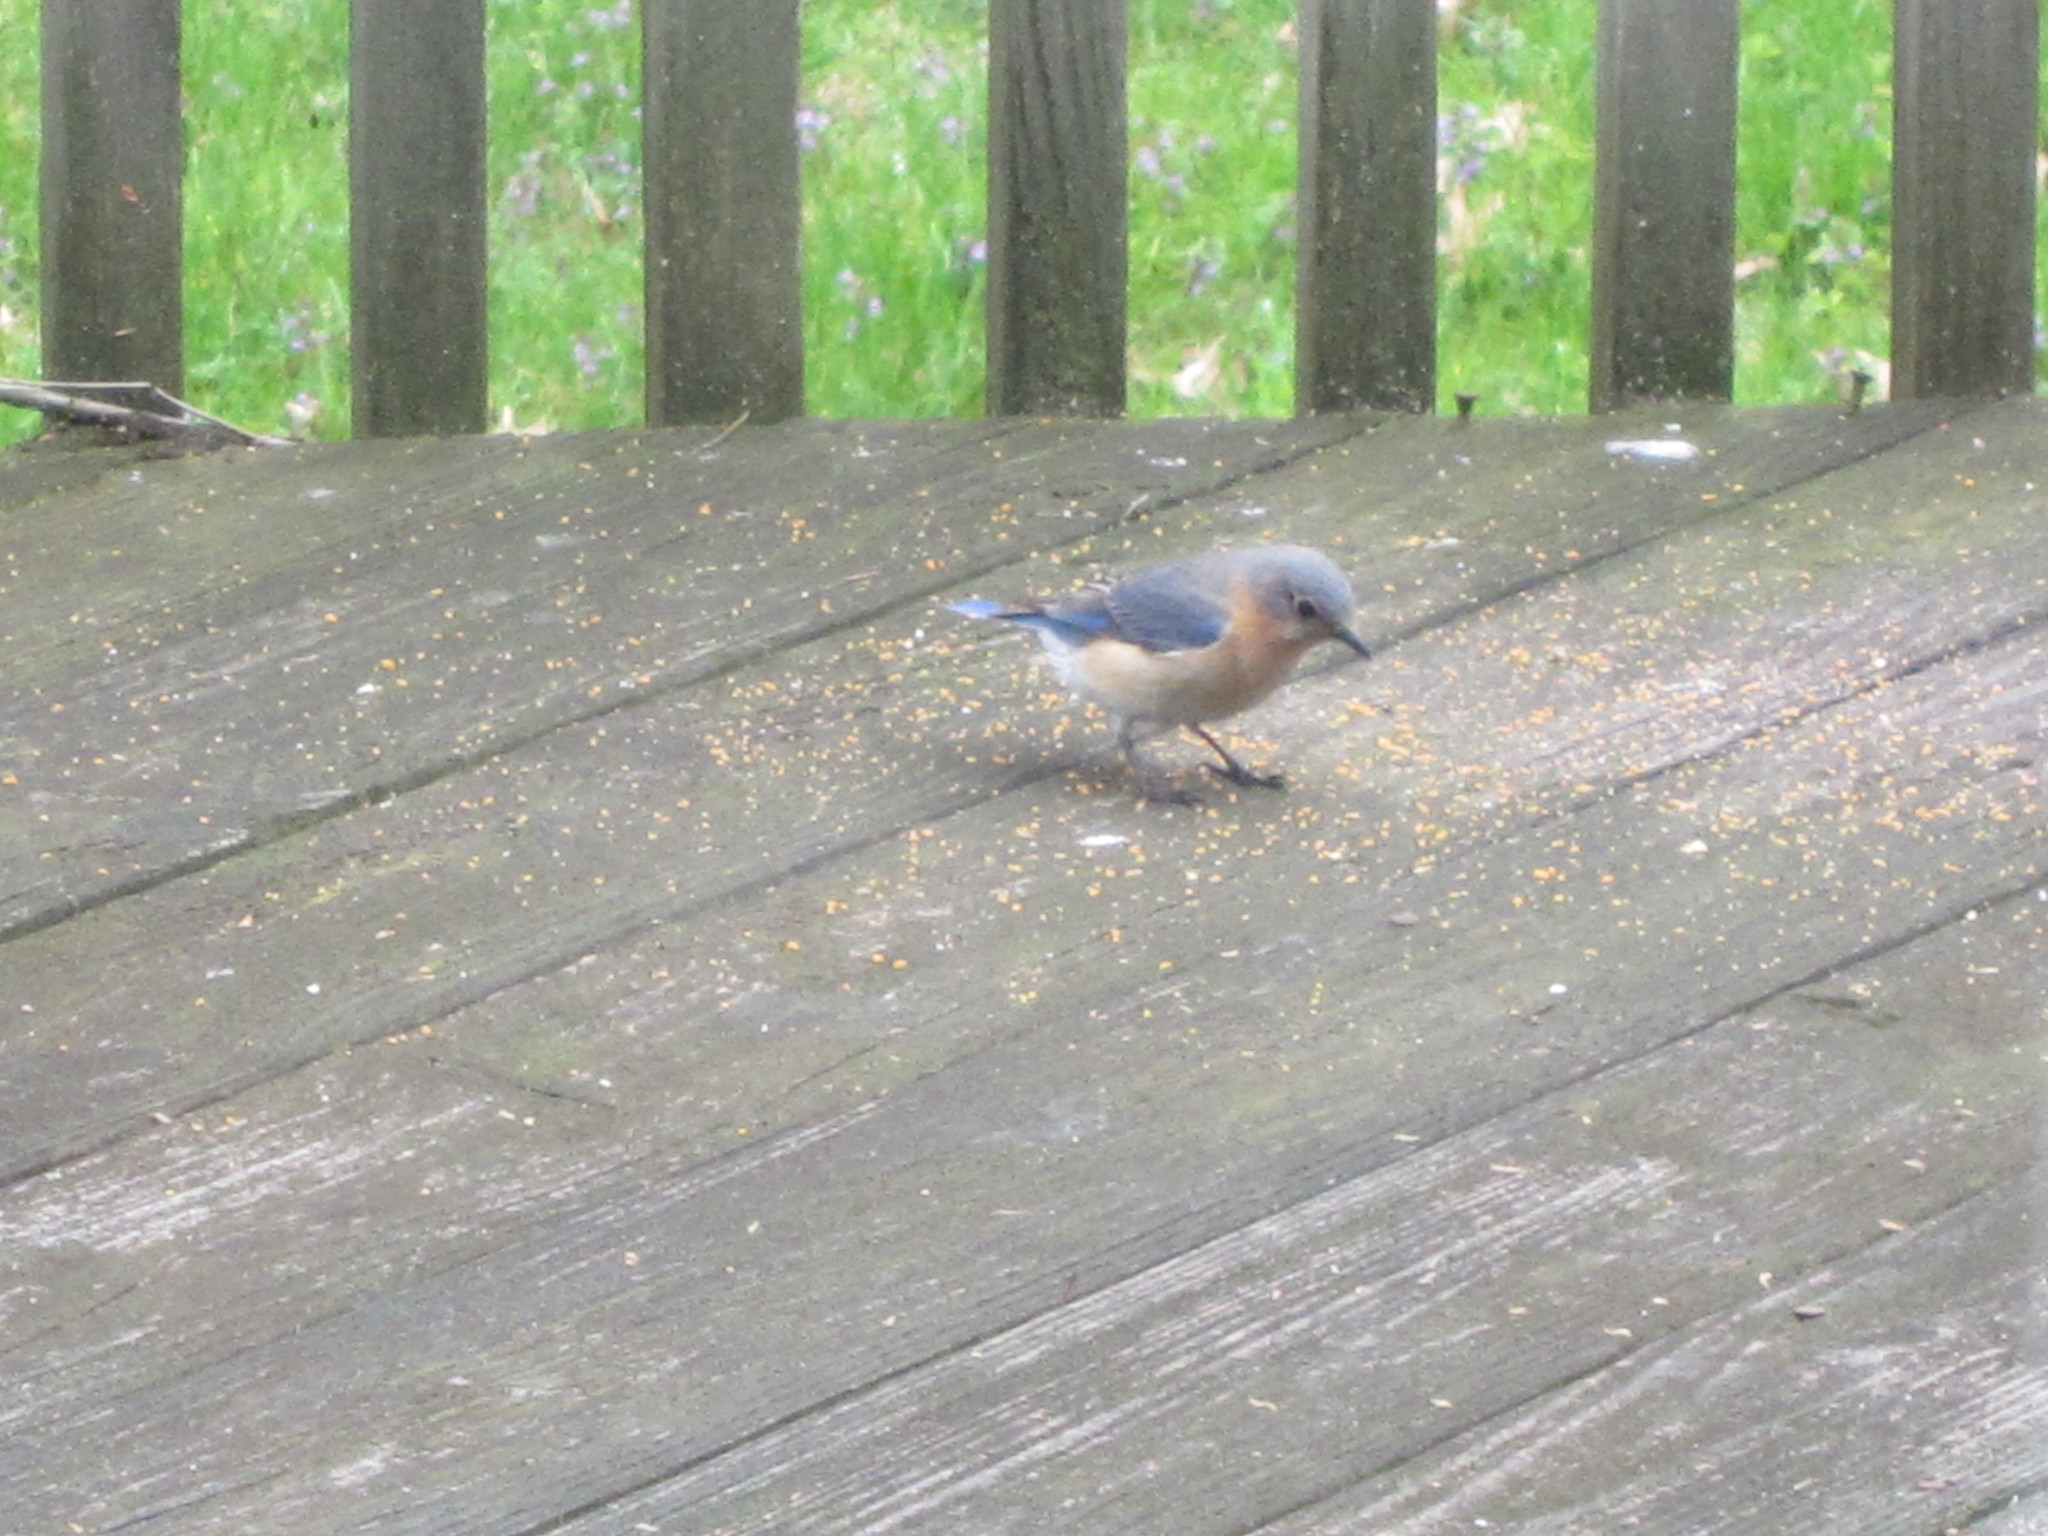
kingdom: Animalia
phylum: Chordata
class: Aves
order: Passeriformes
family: Turdidae
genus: Sialia
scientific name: Sialia sialis
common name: Eastern bluebird
